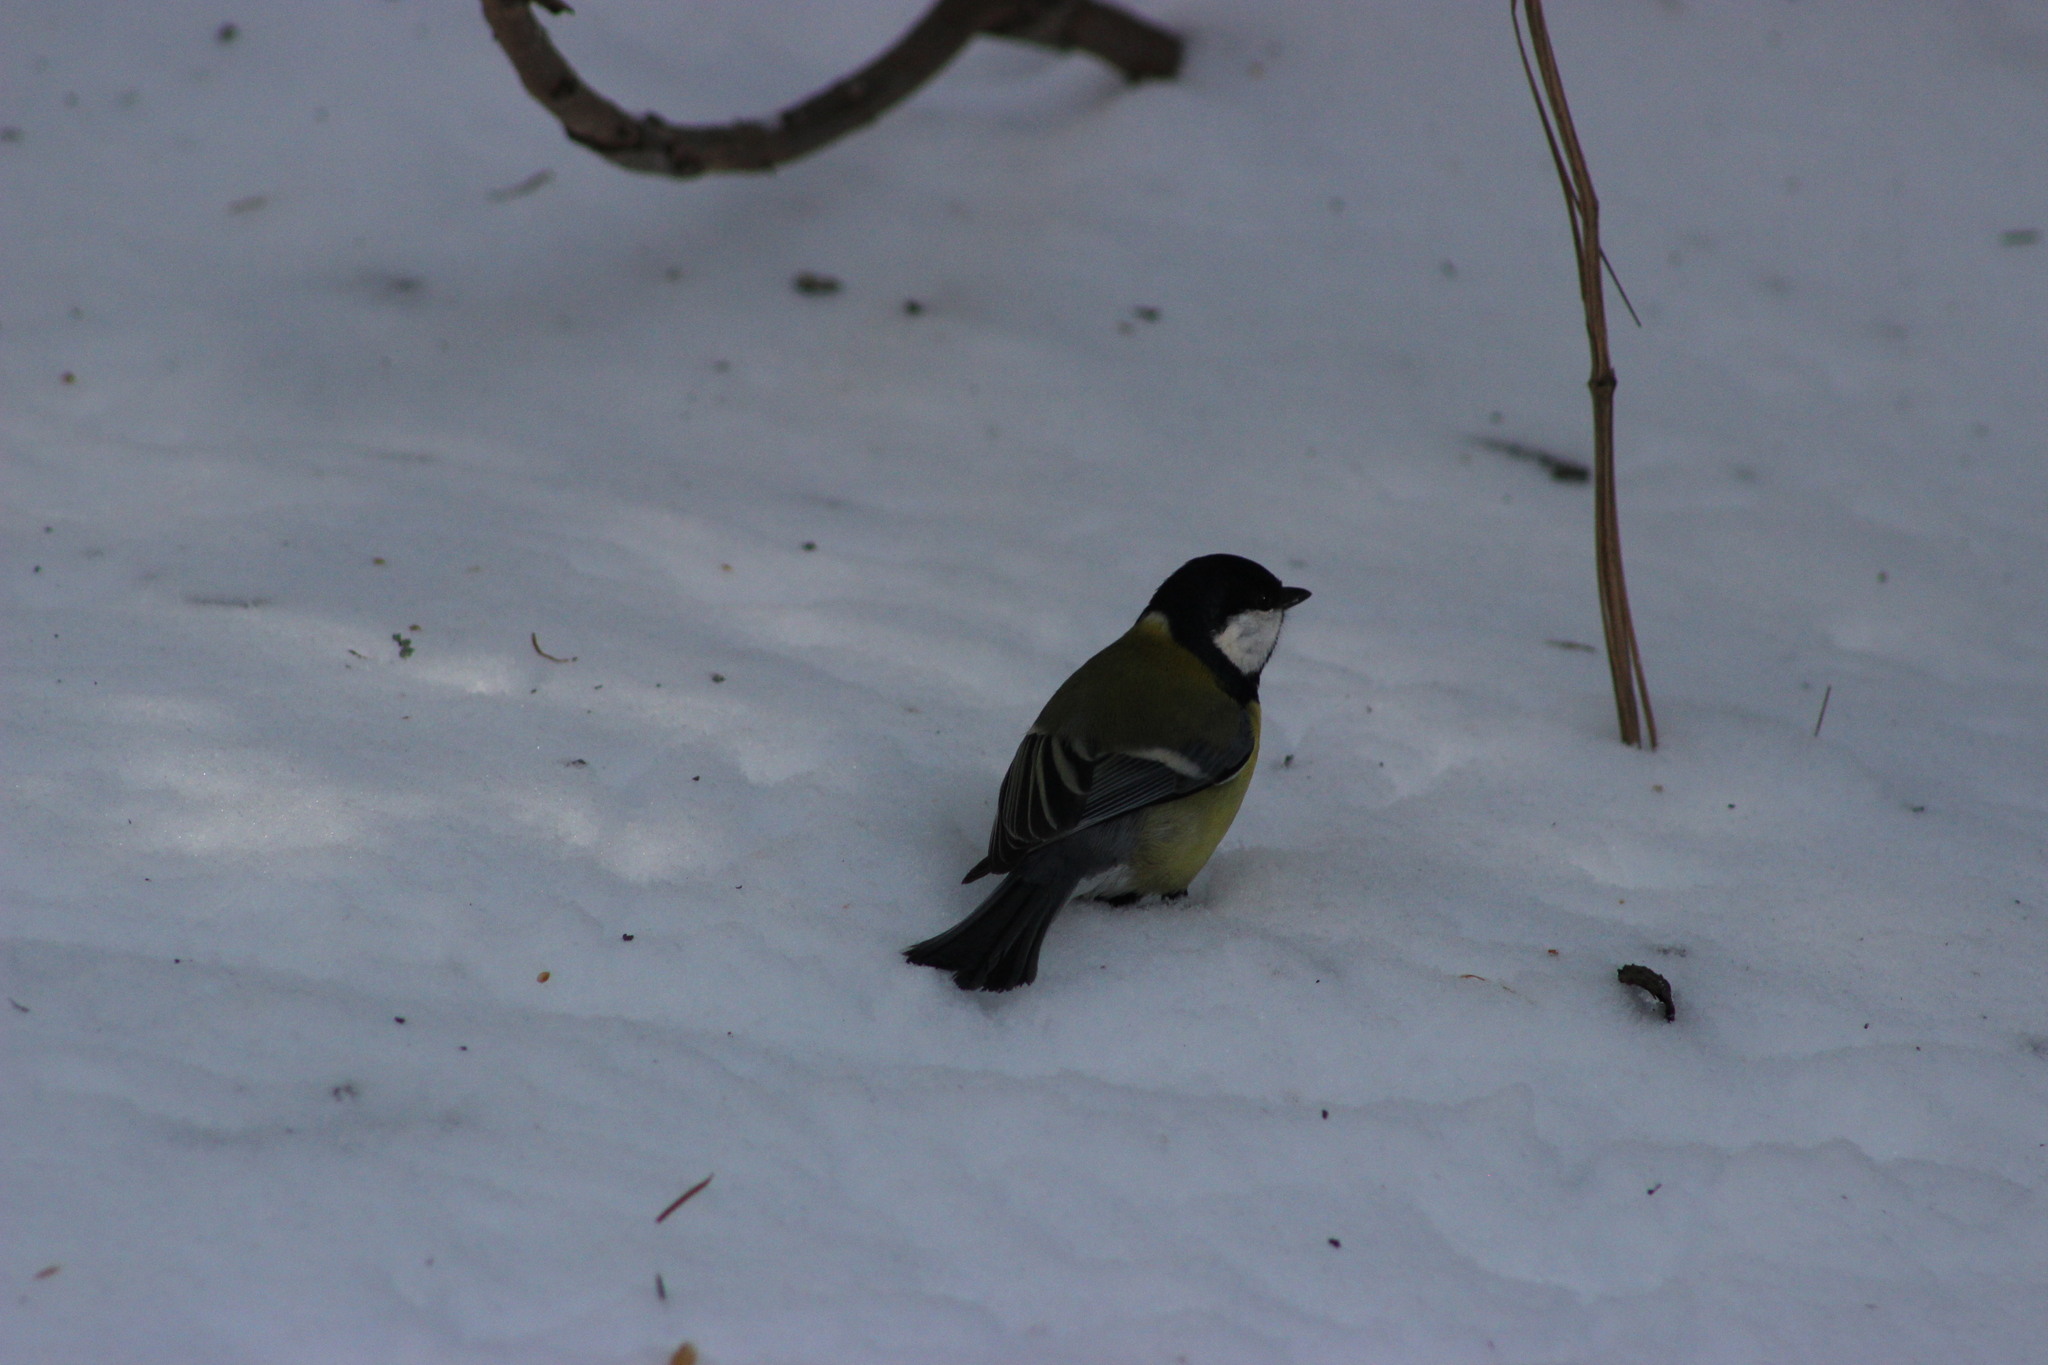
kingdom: Animalia
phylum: Chordata
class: Aves
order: Passeriformes
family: Paridae
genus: Parus
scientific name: Parus major
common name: Great tit
